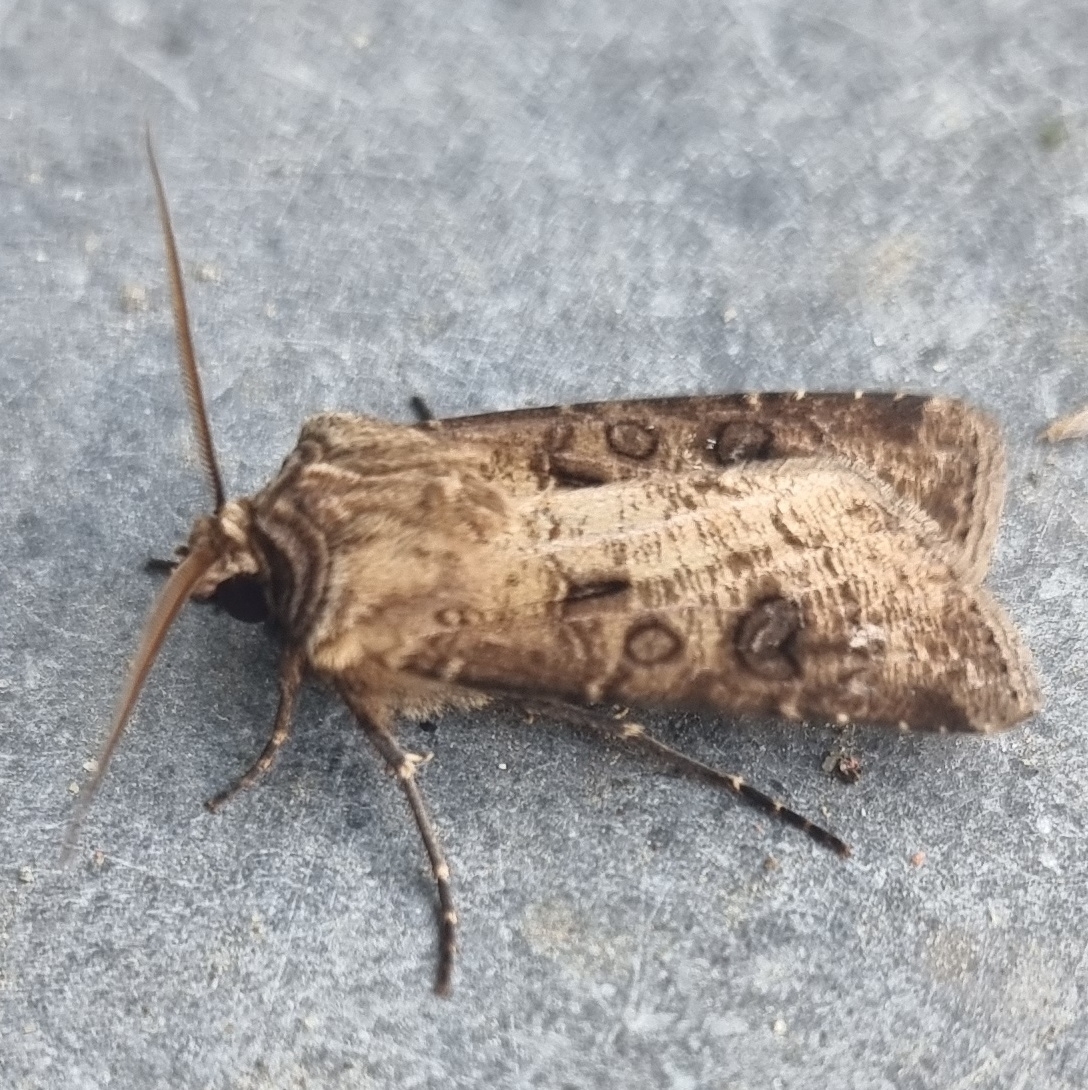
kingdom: Animalia
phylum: Arthropoda
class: Insecta
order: Lepidoptera
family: Noctuidae
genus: Agrotis
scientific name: Agrotis clavis
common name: Heart and club
